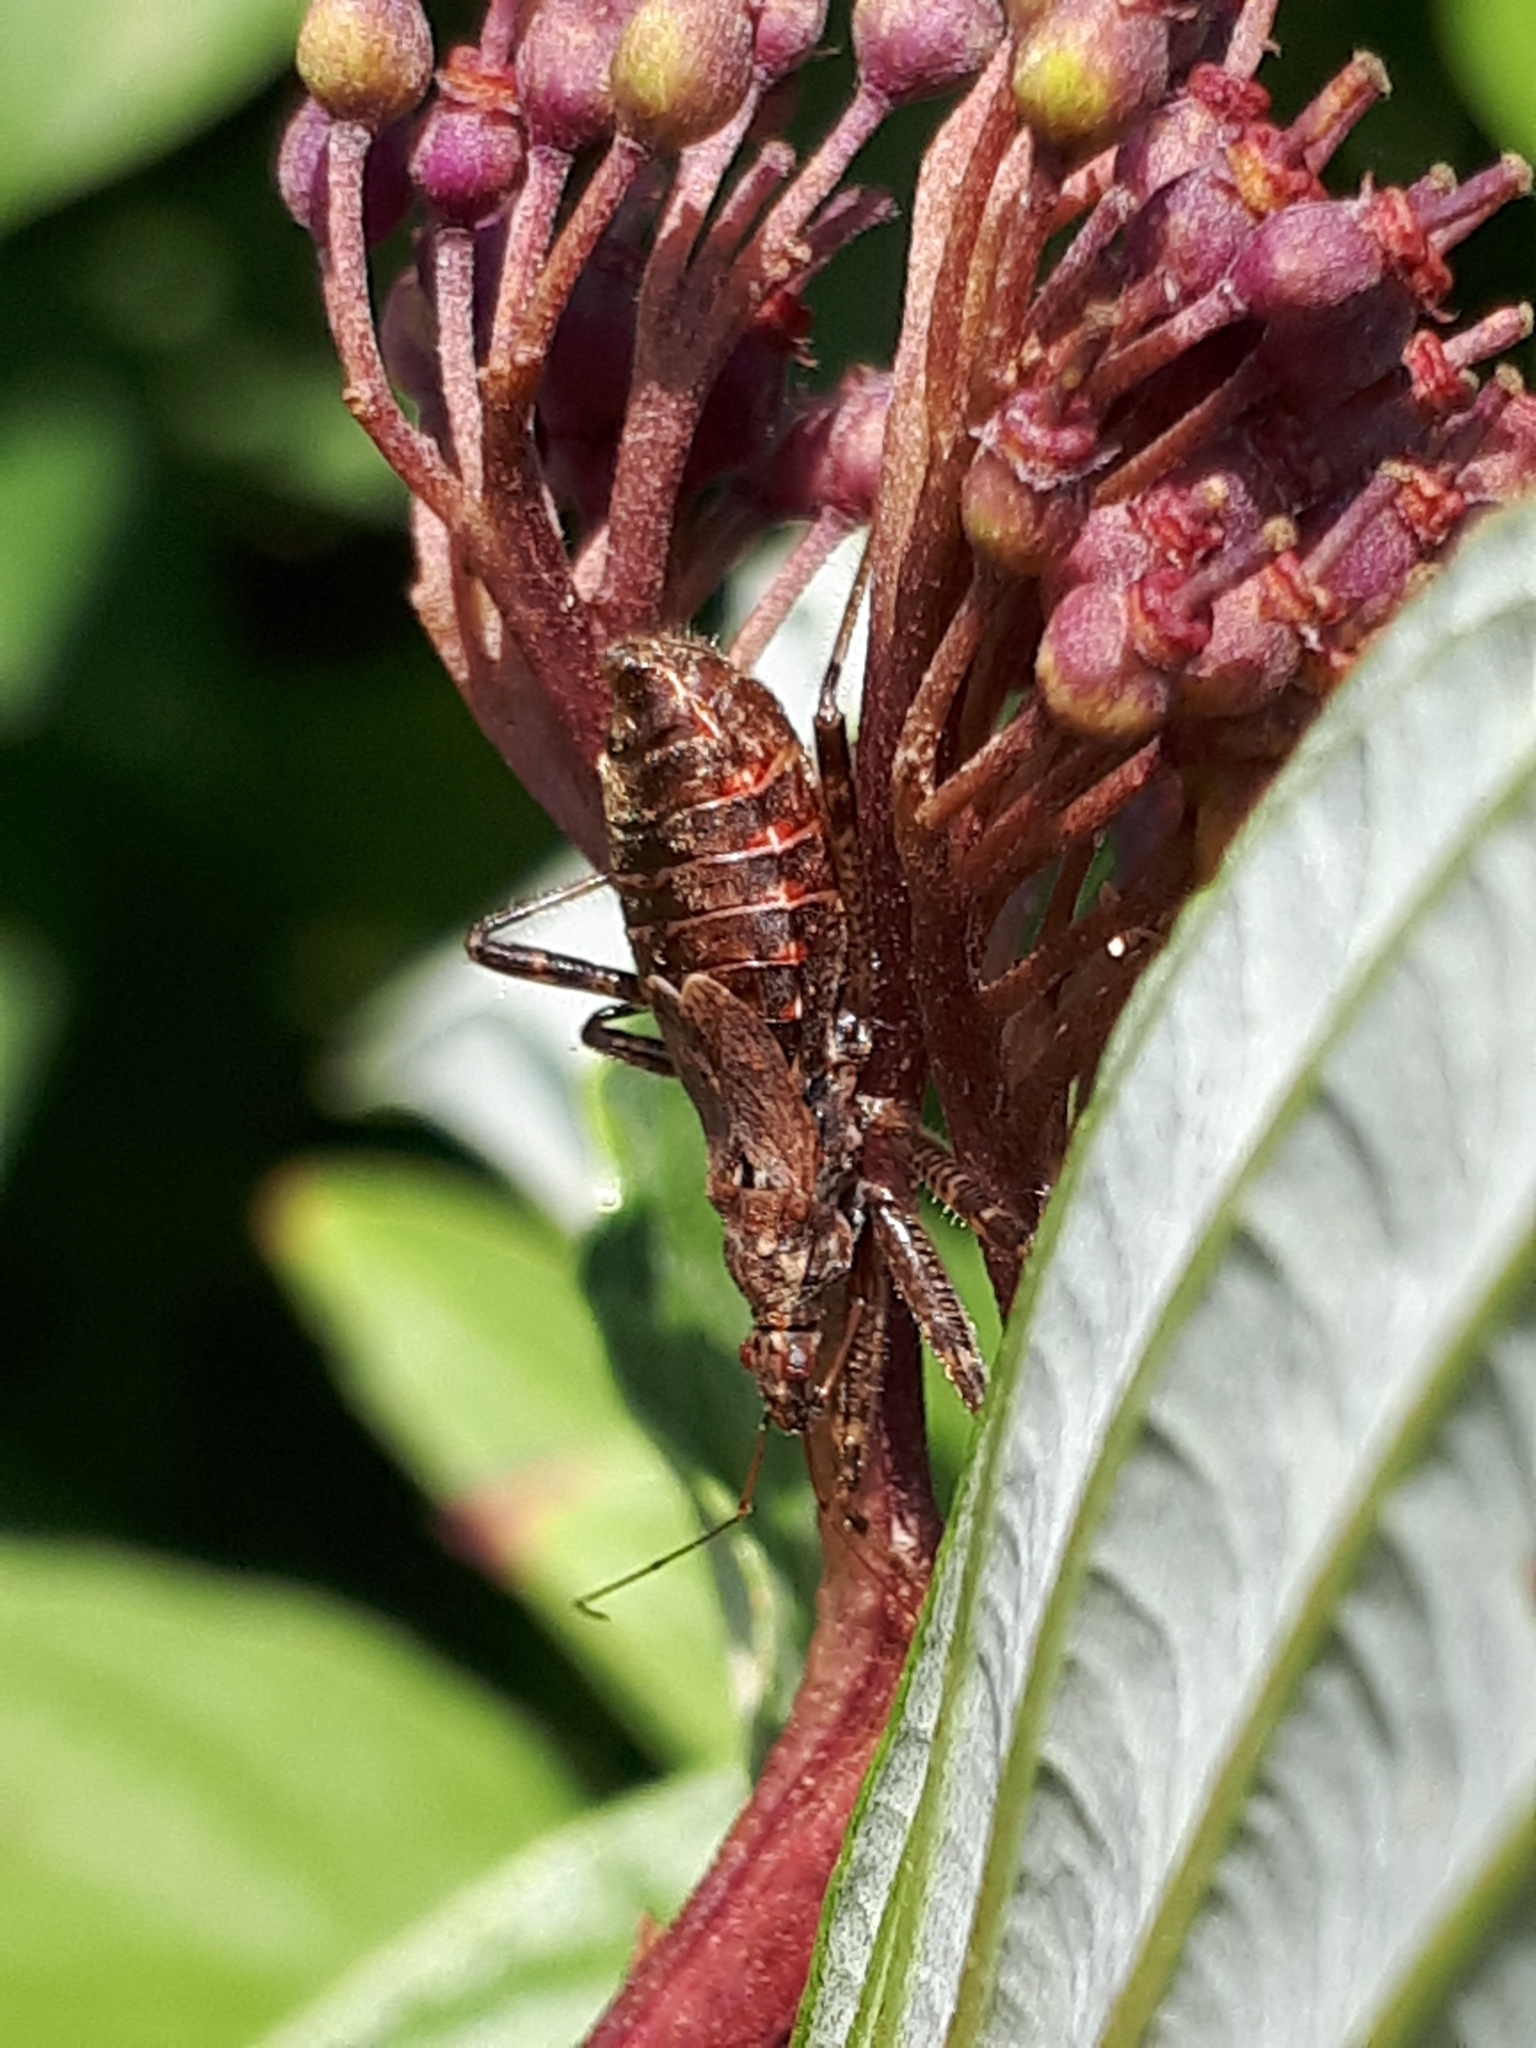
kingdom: Animalia
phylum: Arthropoda
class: Insecta
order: Hemiptera
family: Nabidae
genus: Himacerus
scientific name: Himacerus apterus
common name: Tree damsel bug
